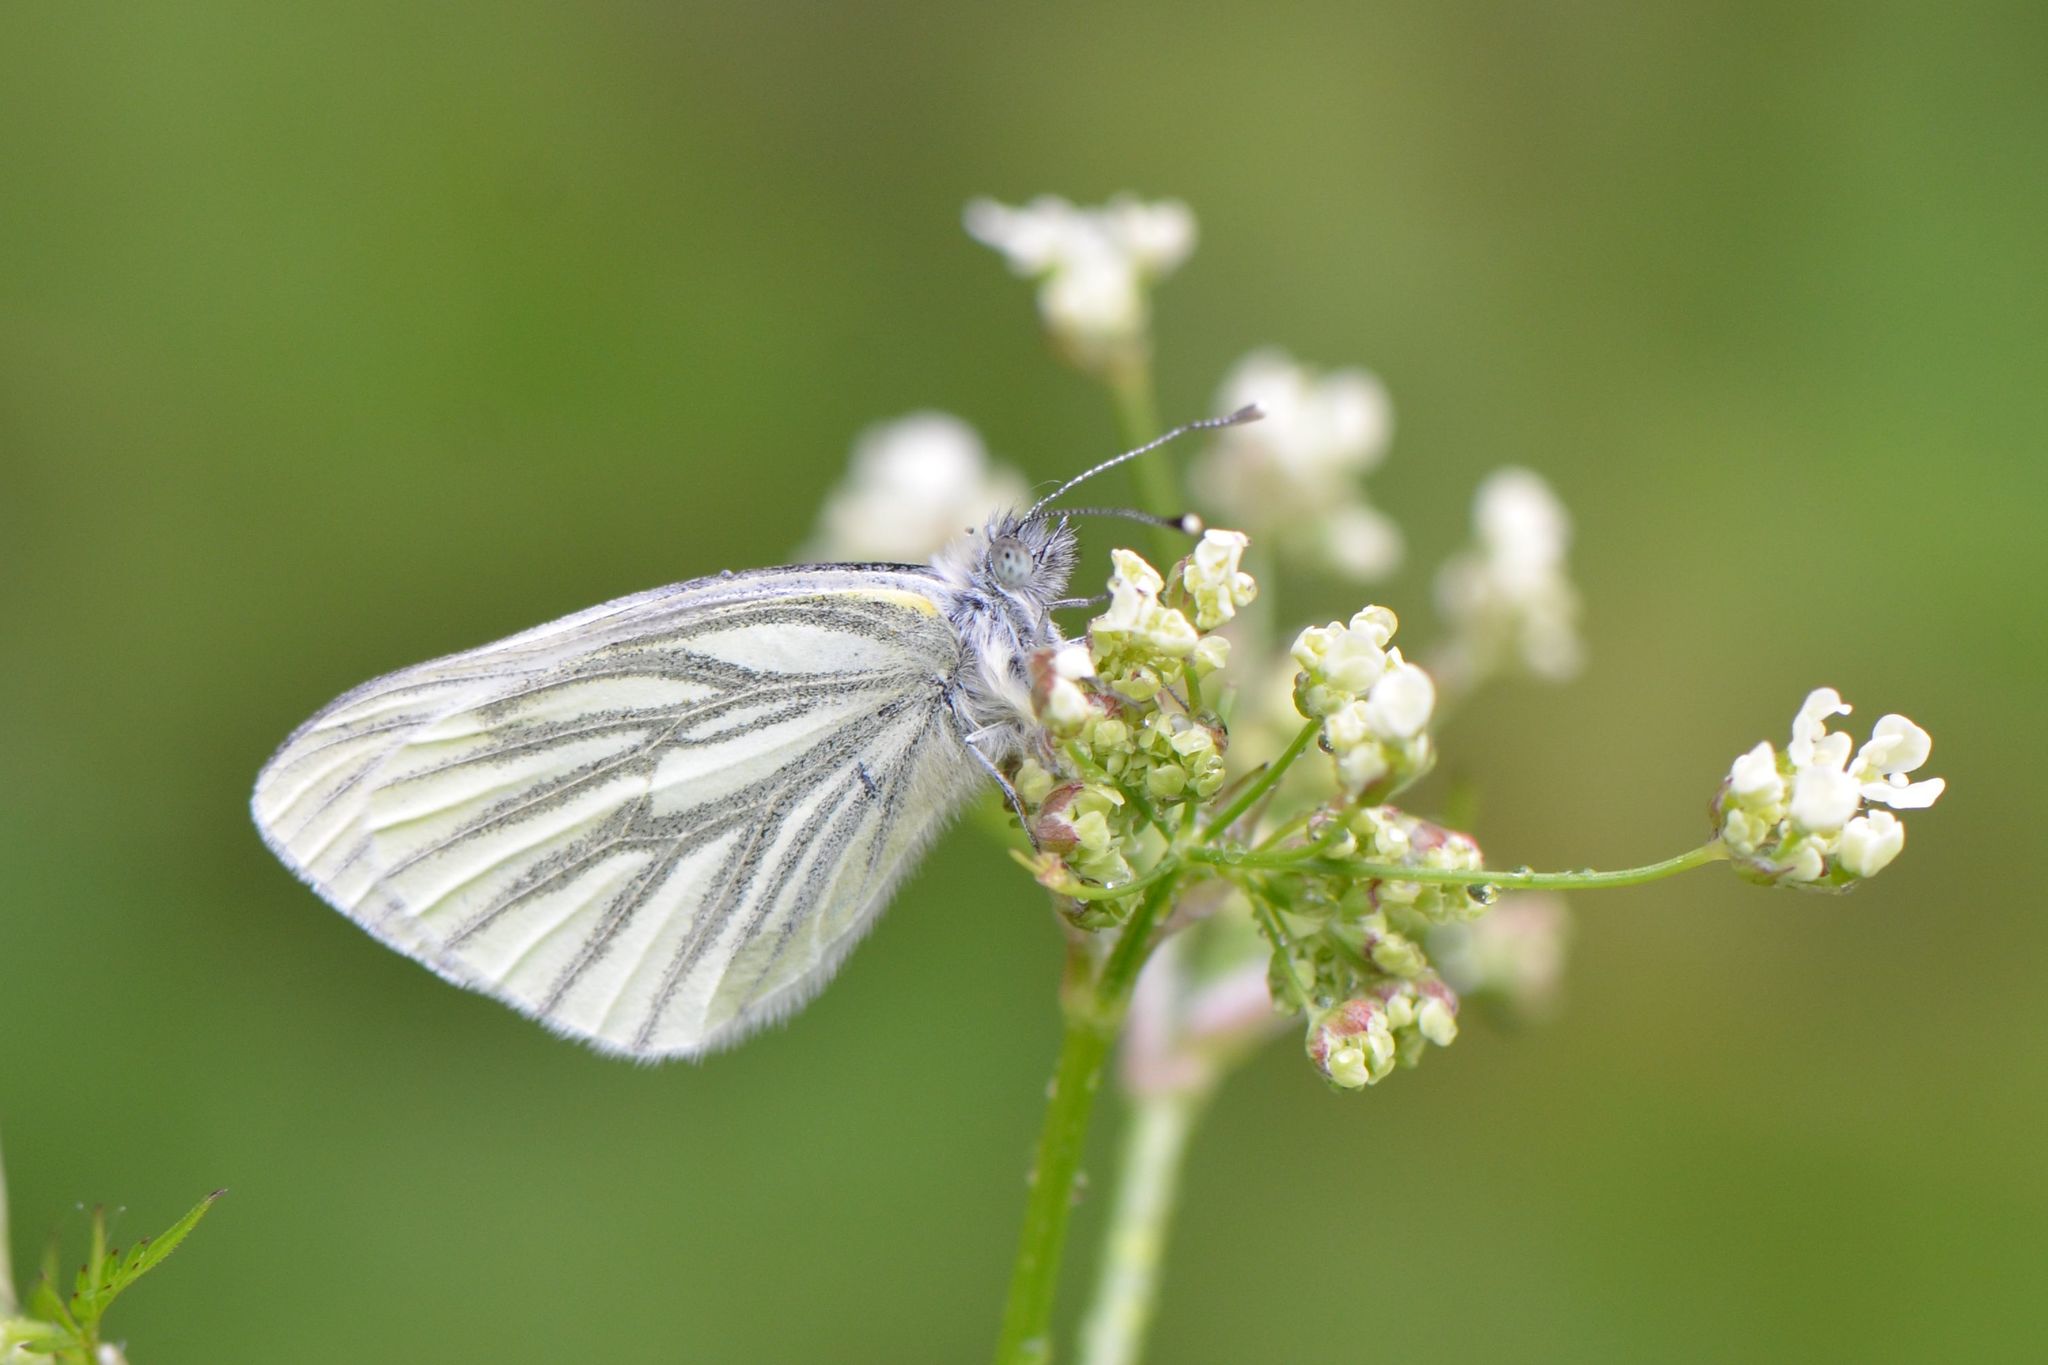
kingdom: Animalia
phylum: Arthropoda
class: Insecta
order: Lepidoptera
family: Pieridae
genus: Pieris
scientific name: Pieris napi
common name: Green-veined white
